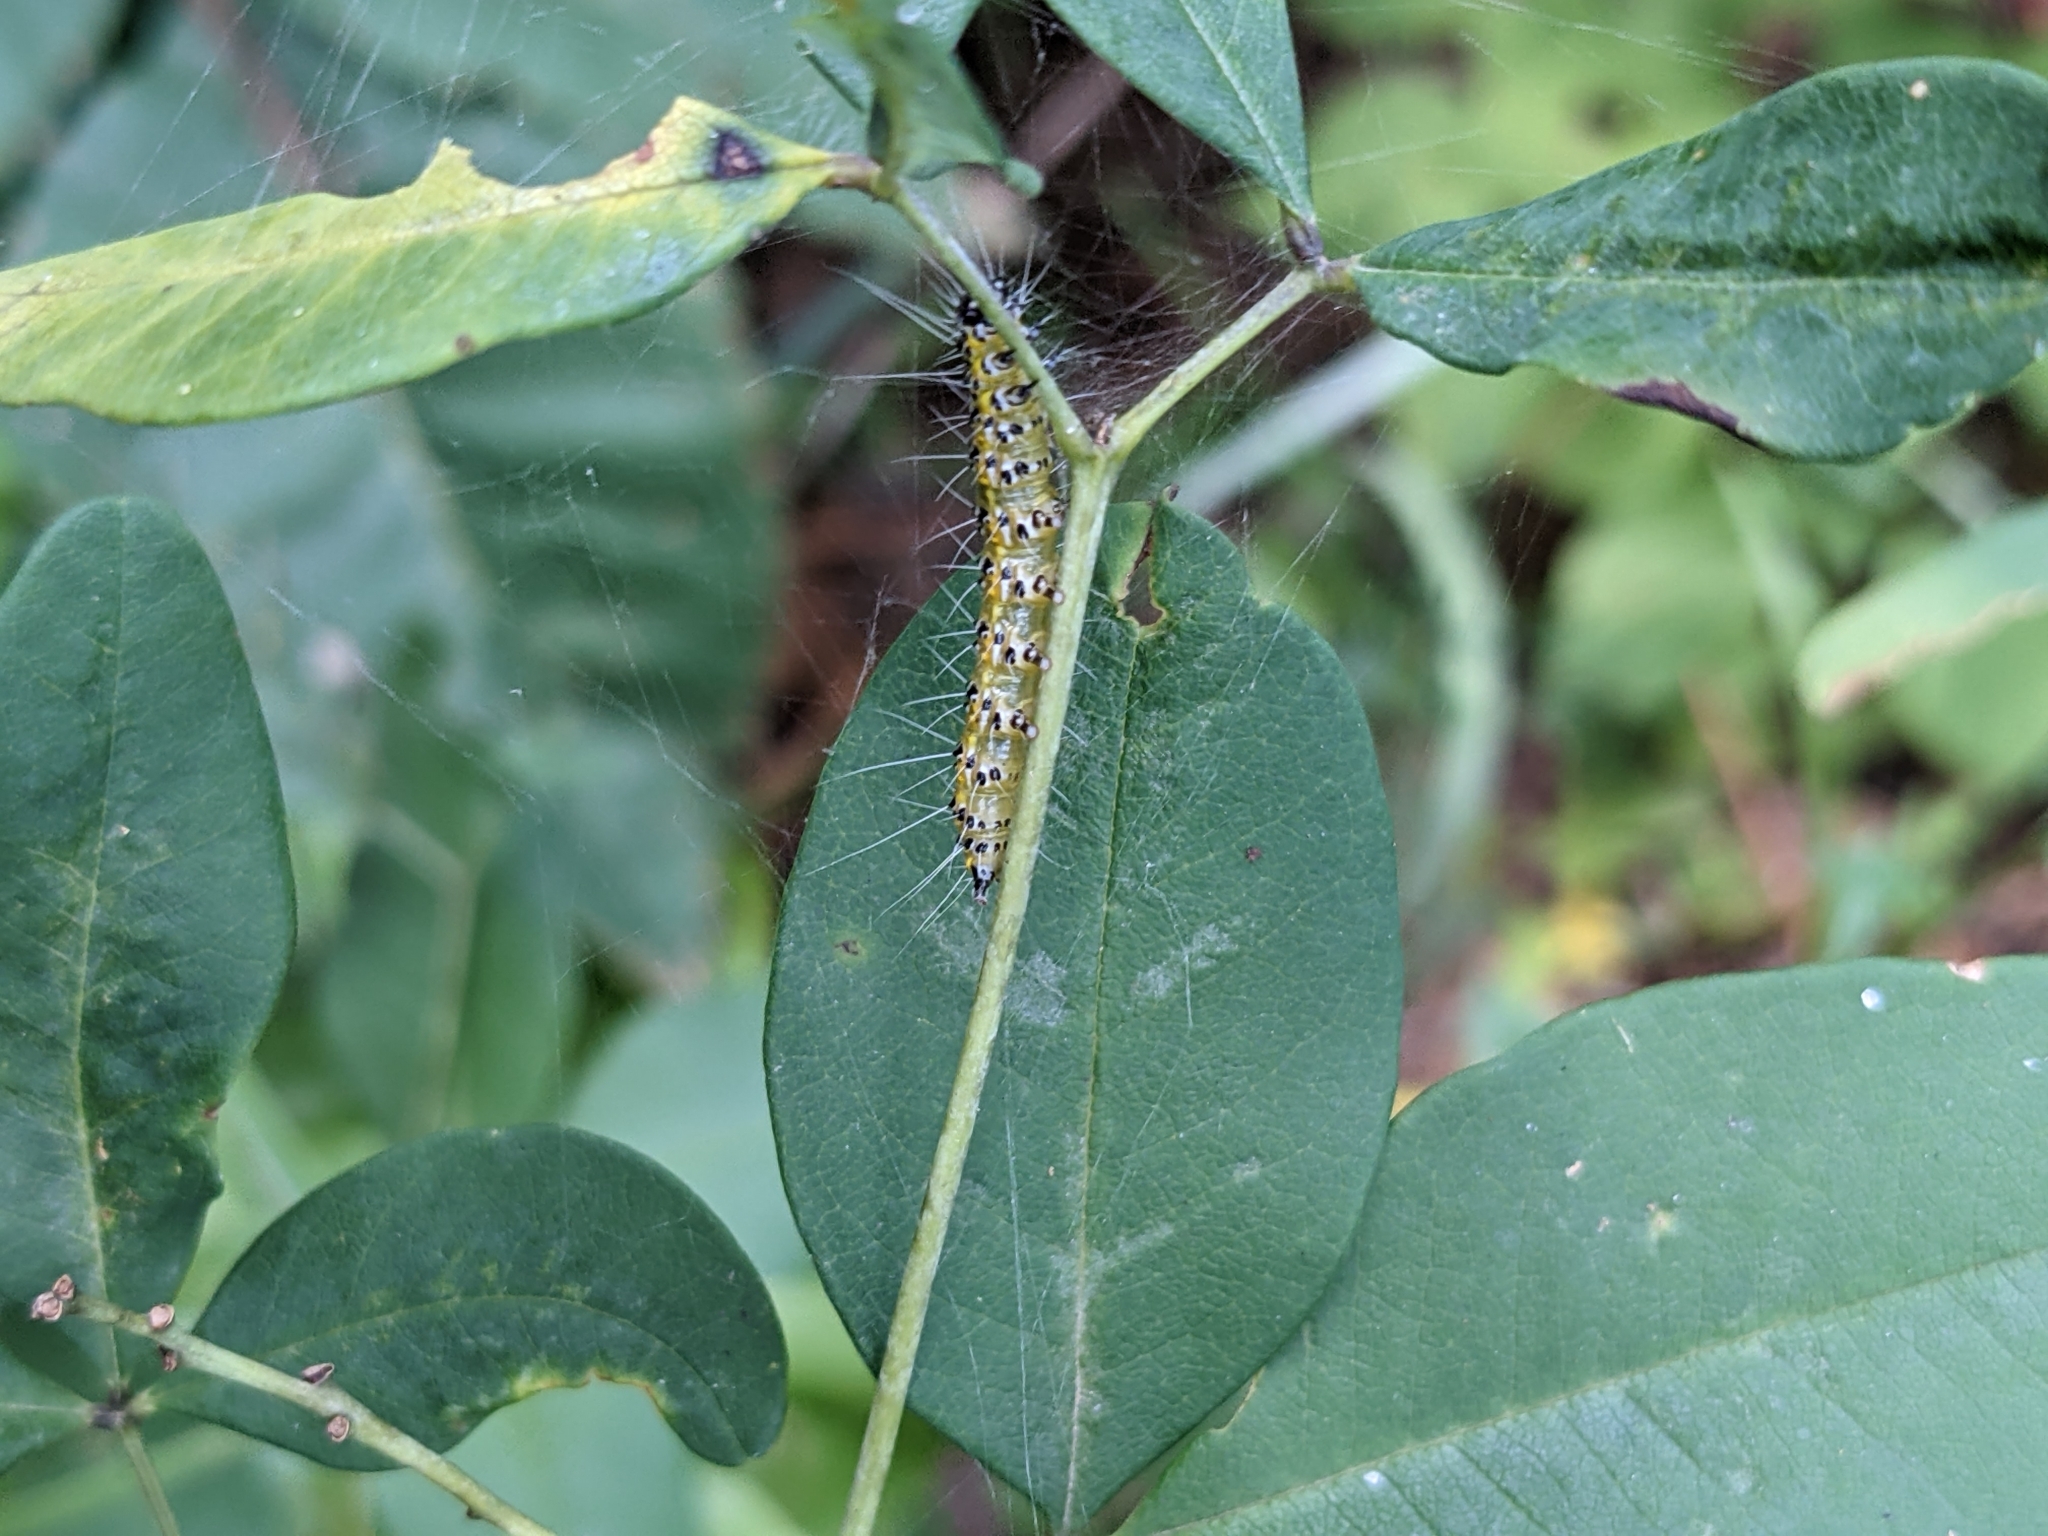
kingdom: Animalia
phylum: Arthropoda
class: Insecta
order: Lepidoptera
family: Crambidae
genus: Uresiphita
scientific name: Uresiphita reversalis
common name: Genista broom moth
